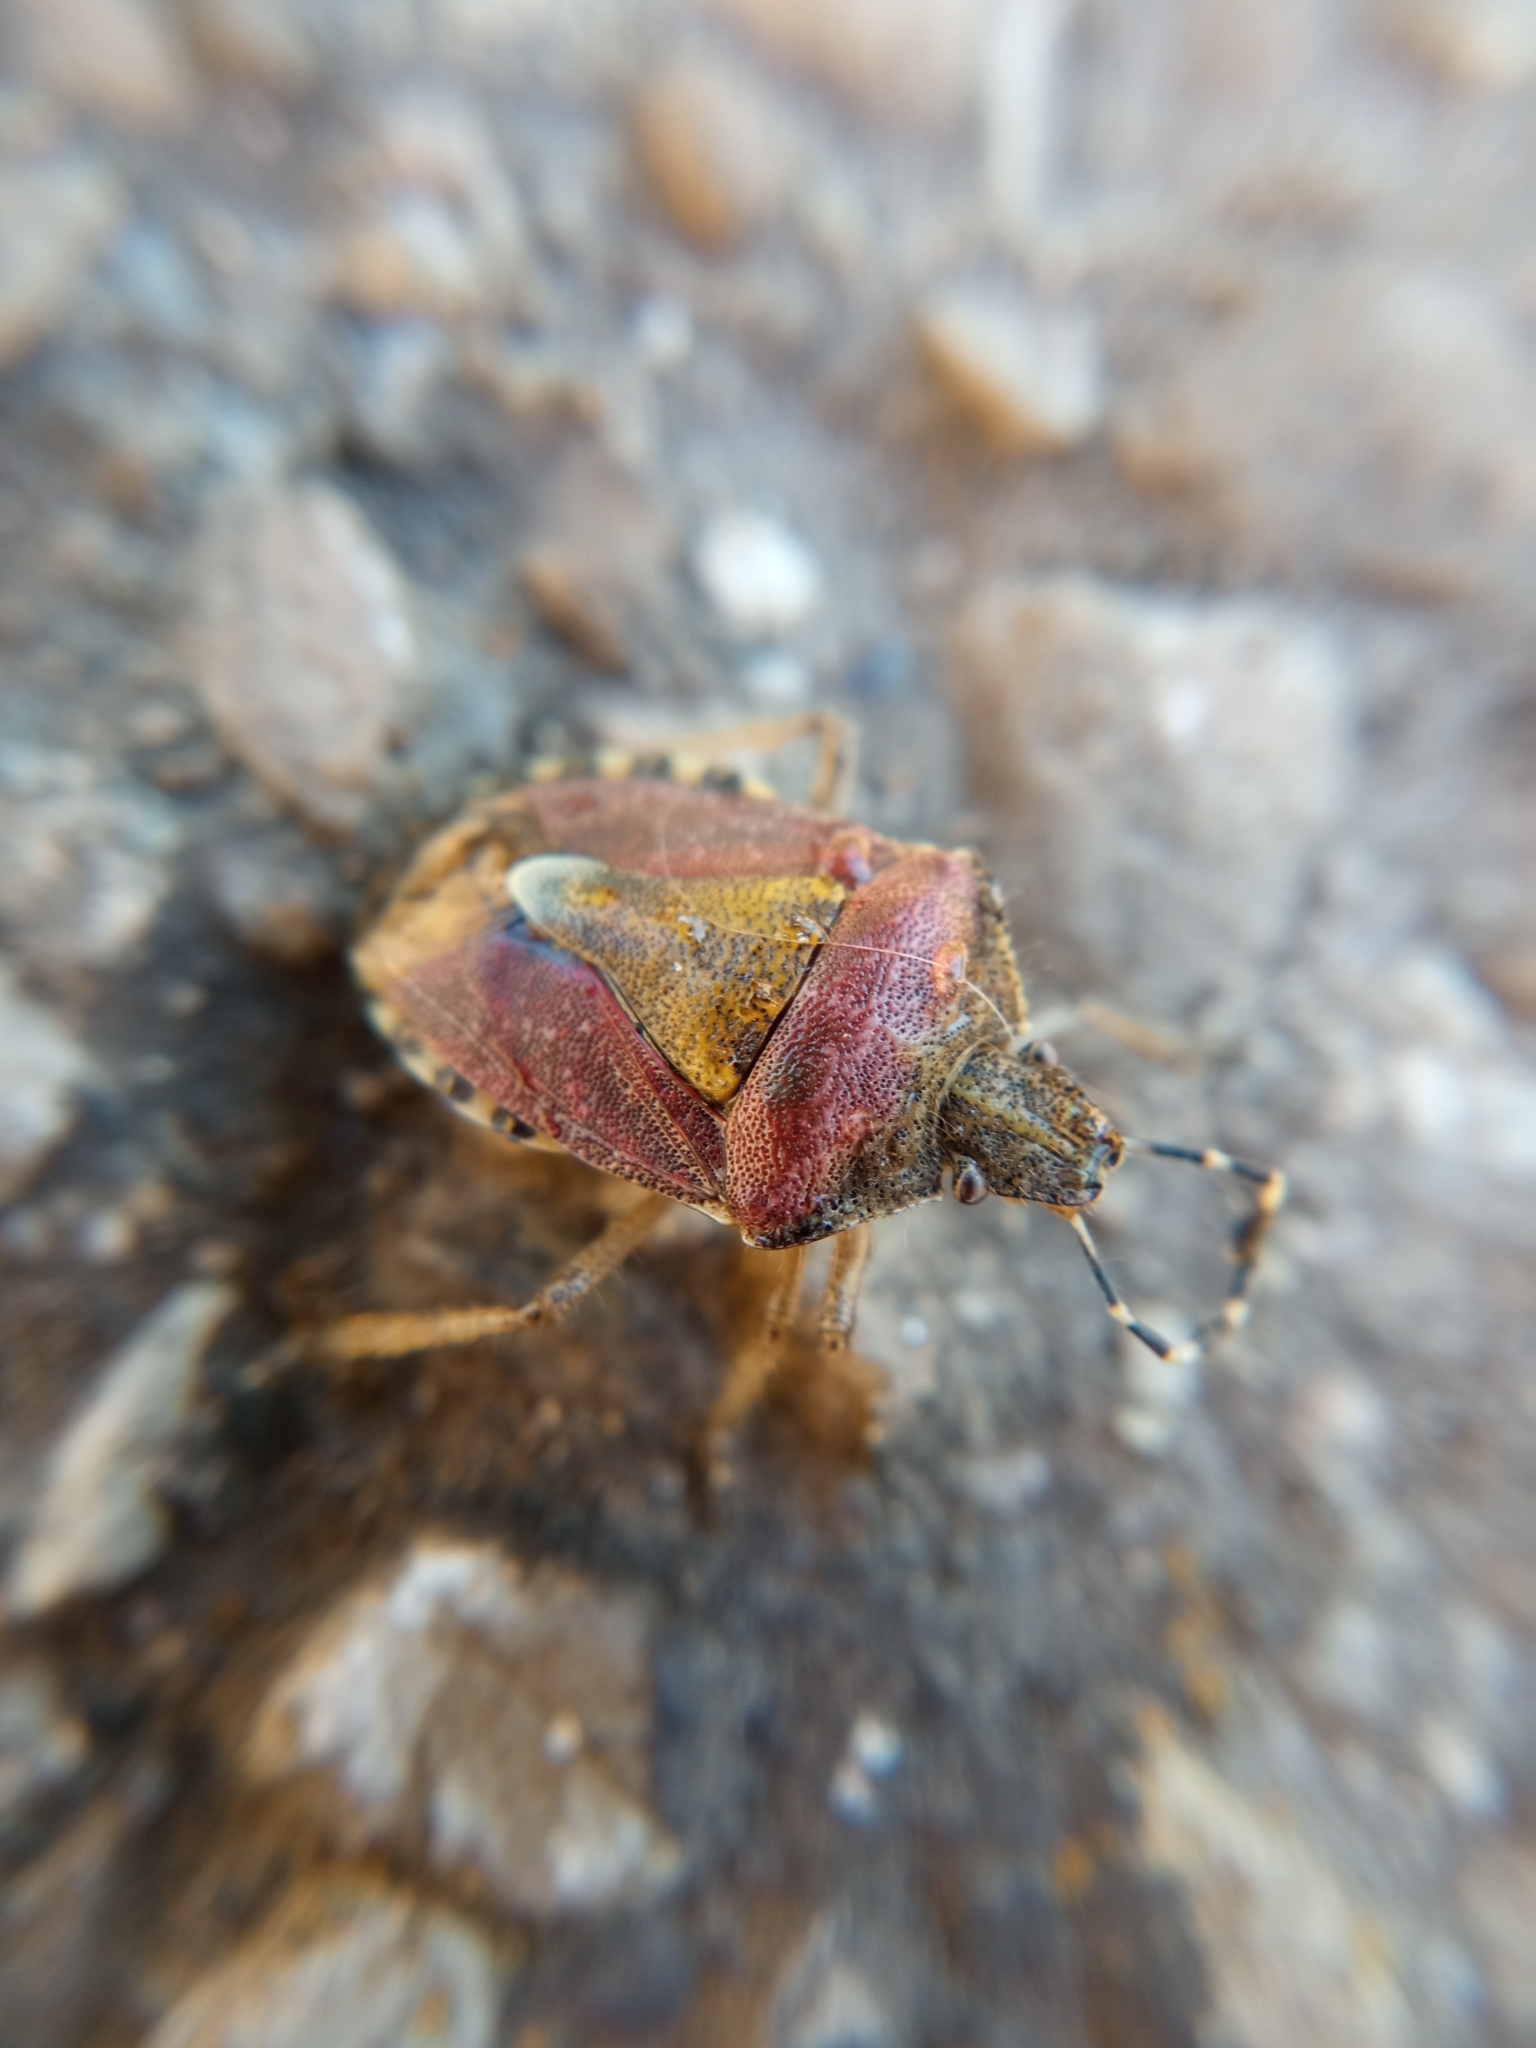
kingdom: Animalia
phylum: Arthropoda
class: Insecta
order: Hemiptera
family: Pentatomidae
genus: Dolycoris
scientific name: Dolycoris baccarum
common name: Sloe bug
